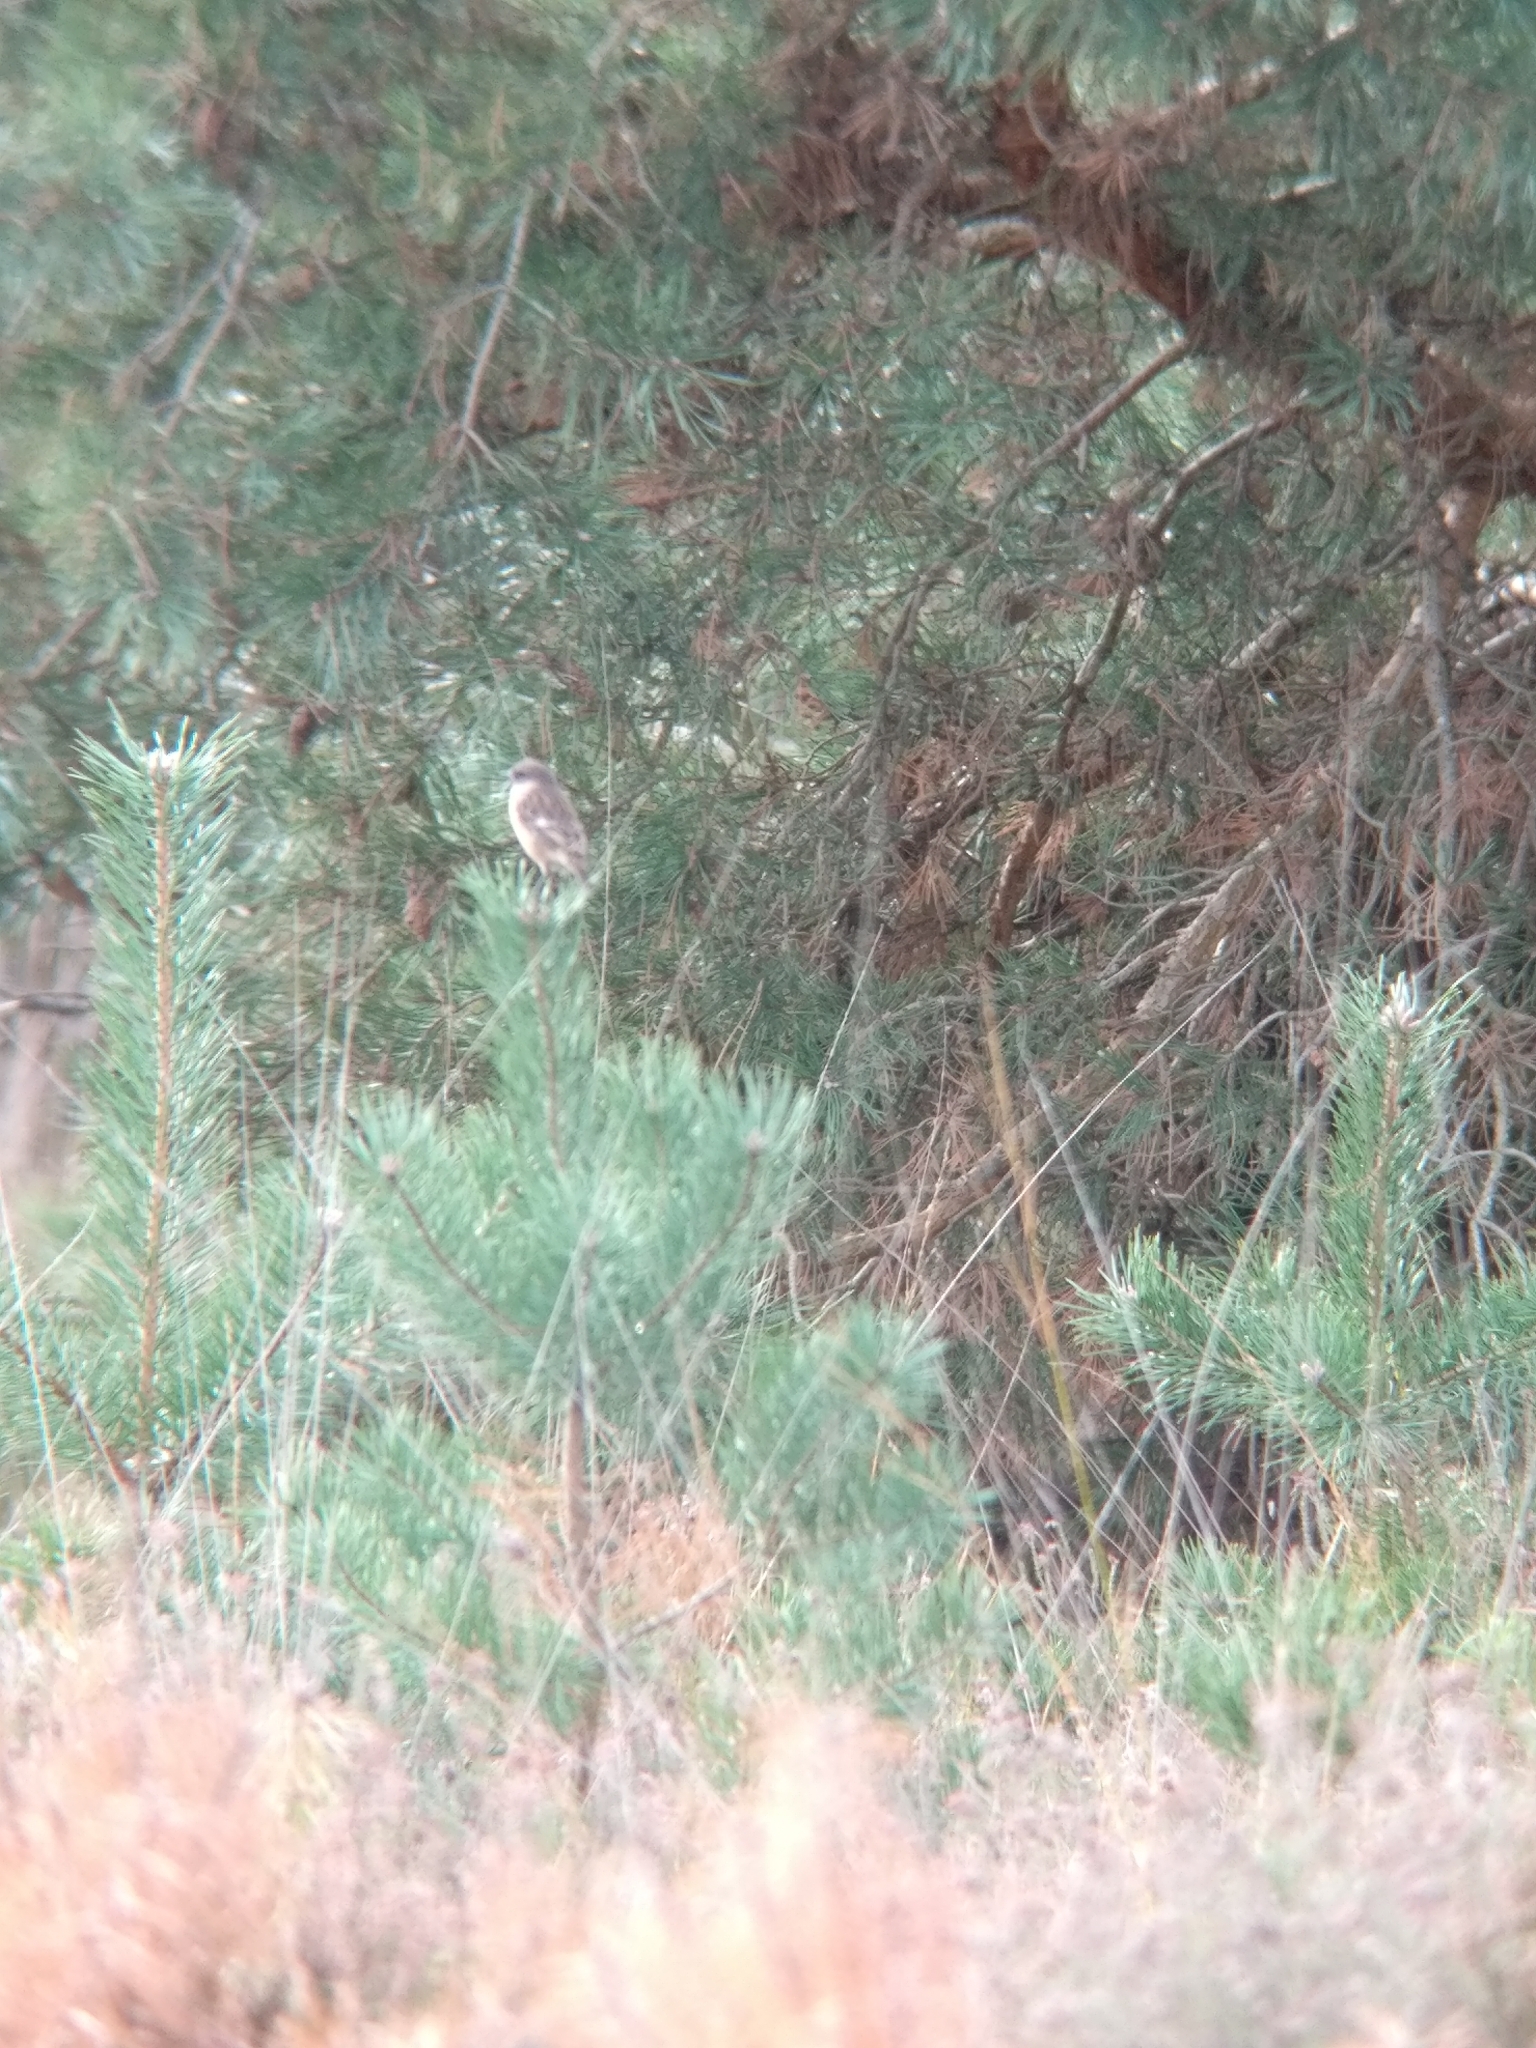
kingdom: Animalia
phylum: Chordata
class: Aves
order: Passeriformes
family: Muscicapidae
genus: Saxicola
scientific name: Saxicola rubicola
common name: European stonechat
